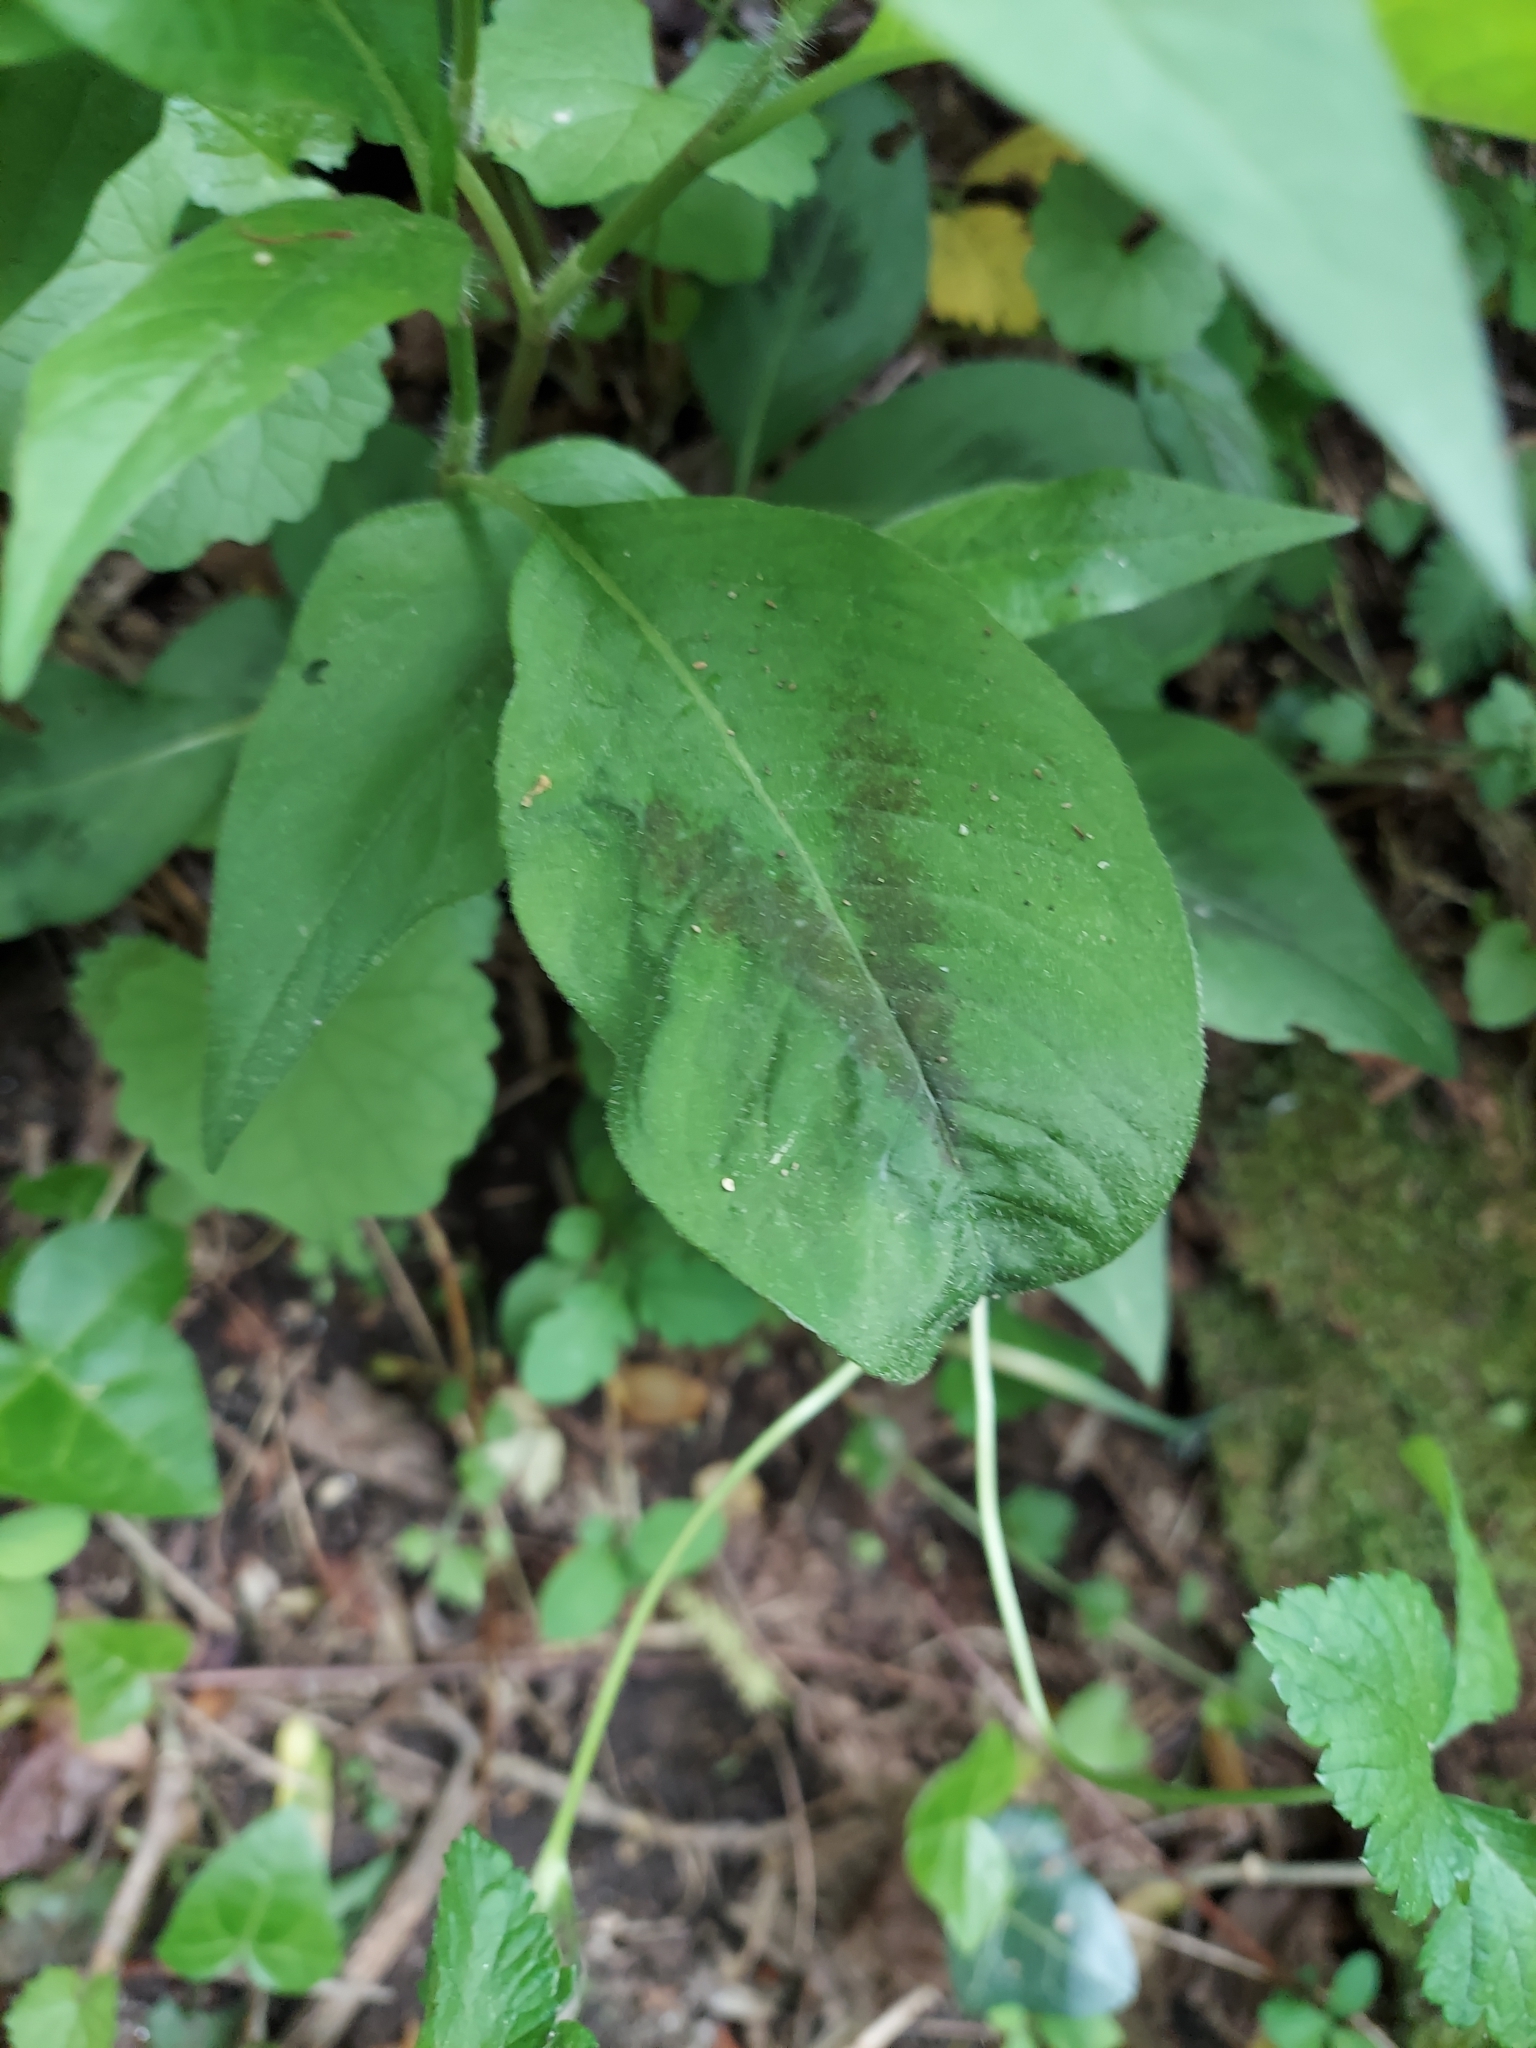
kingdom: Plantae
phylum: Tracheophyta
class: Magnoliopsida
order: Caryophyllales
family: Polygonaceae
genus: Persicaria
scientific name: Persicaria virginiana
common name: Jumpseed
